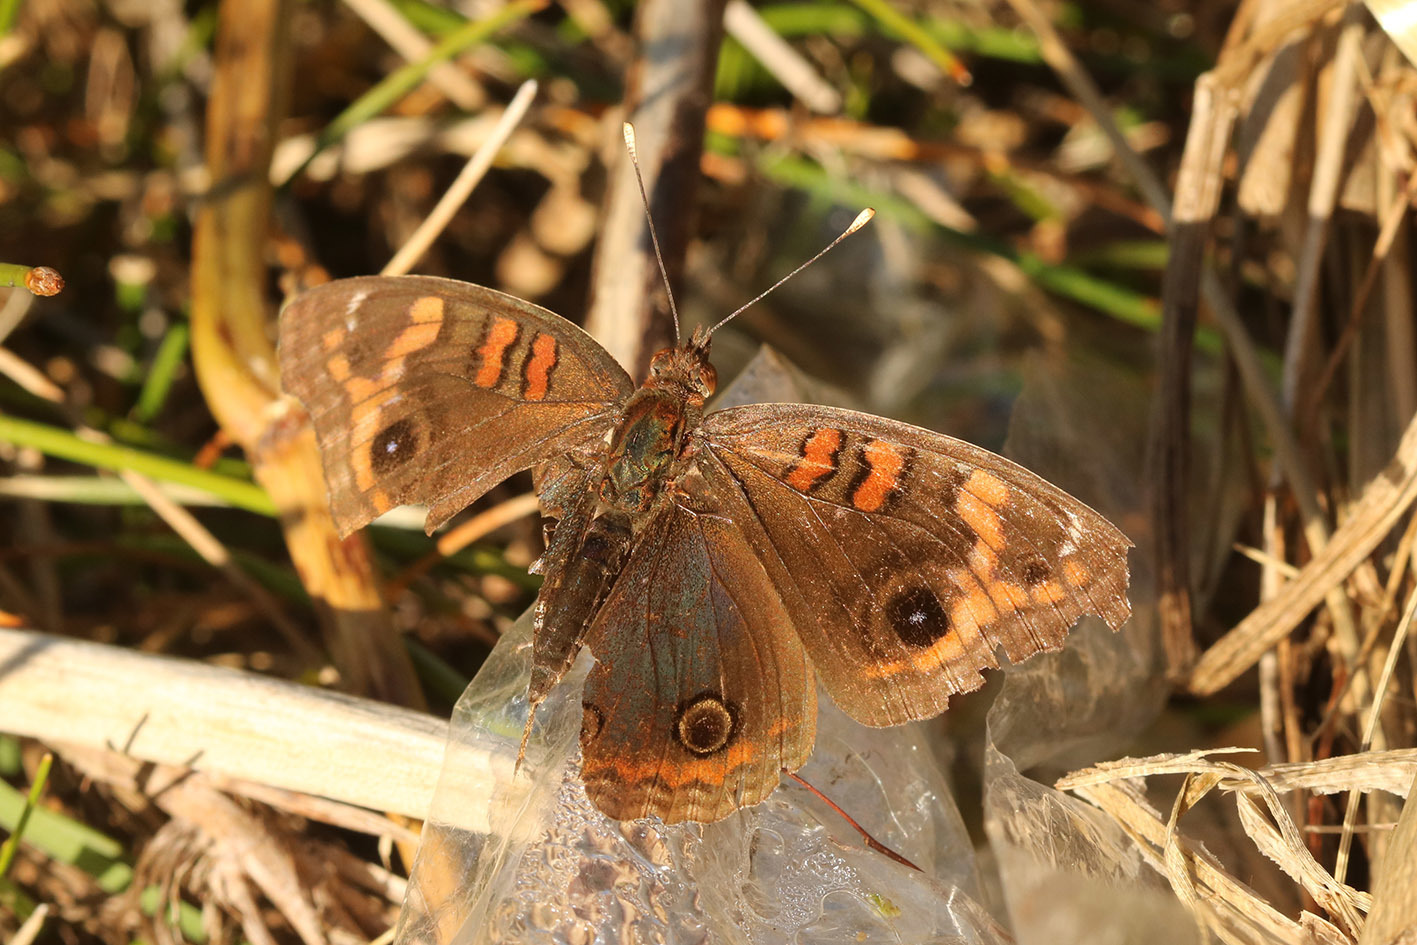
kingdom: Animalia
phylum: Arthropoda
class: Insecta
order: Lepidoptera
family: Nymphalidae
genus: Junonia
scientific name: Junonia lavinia
